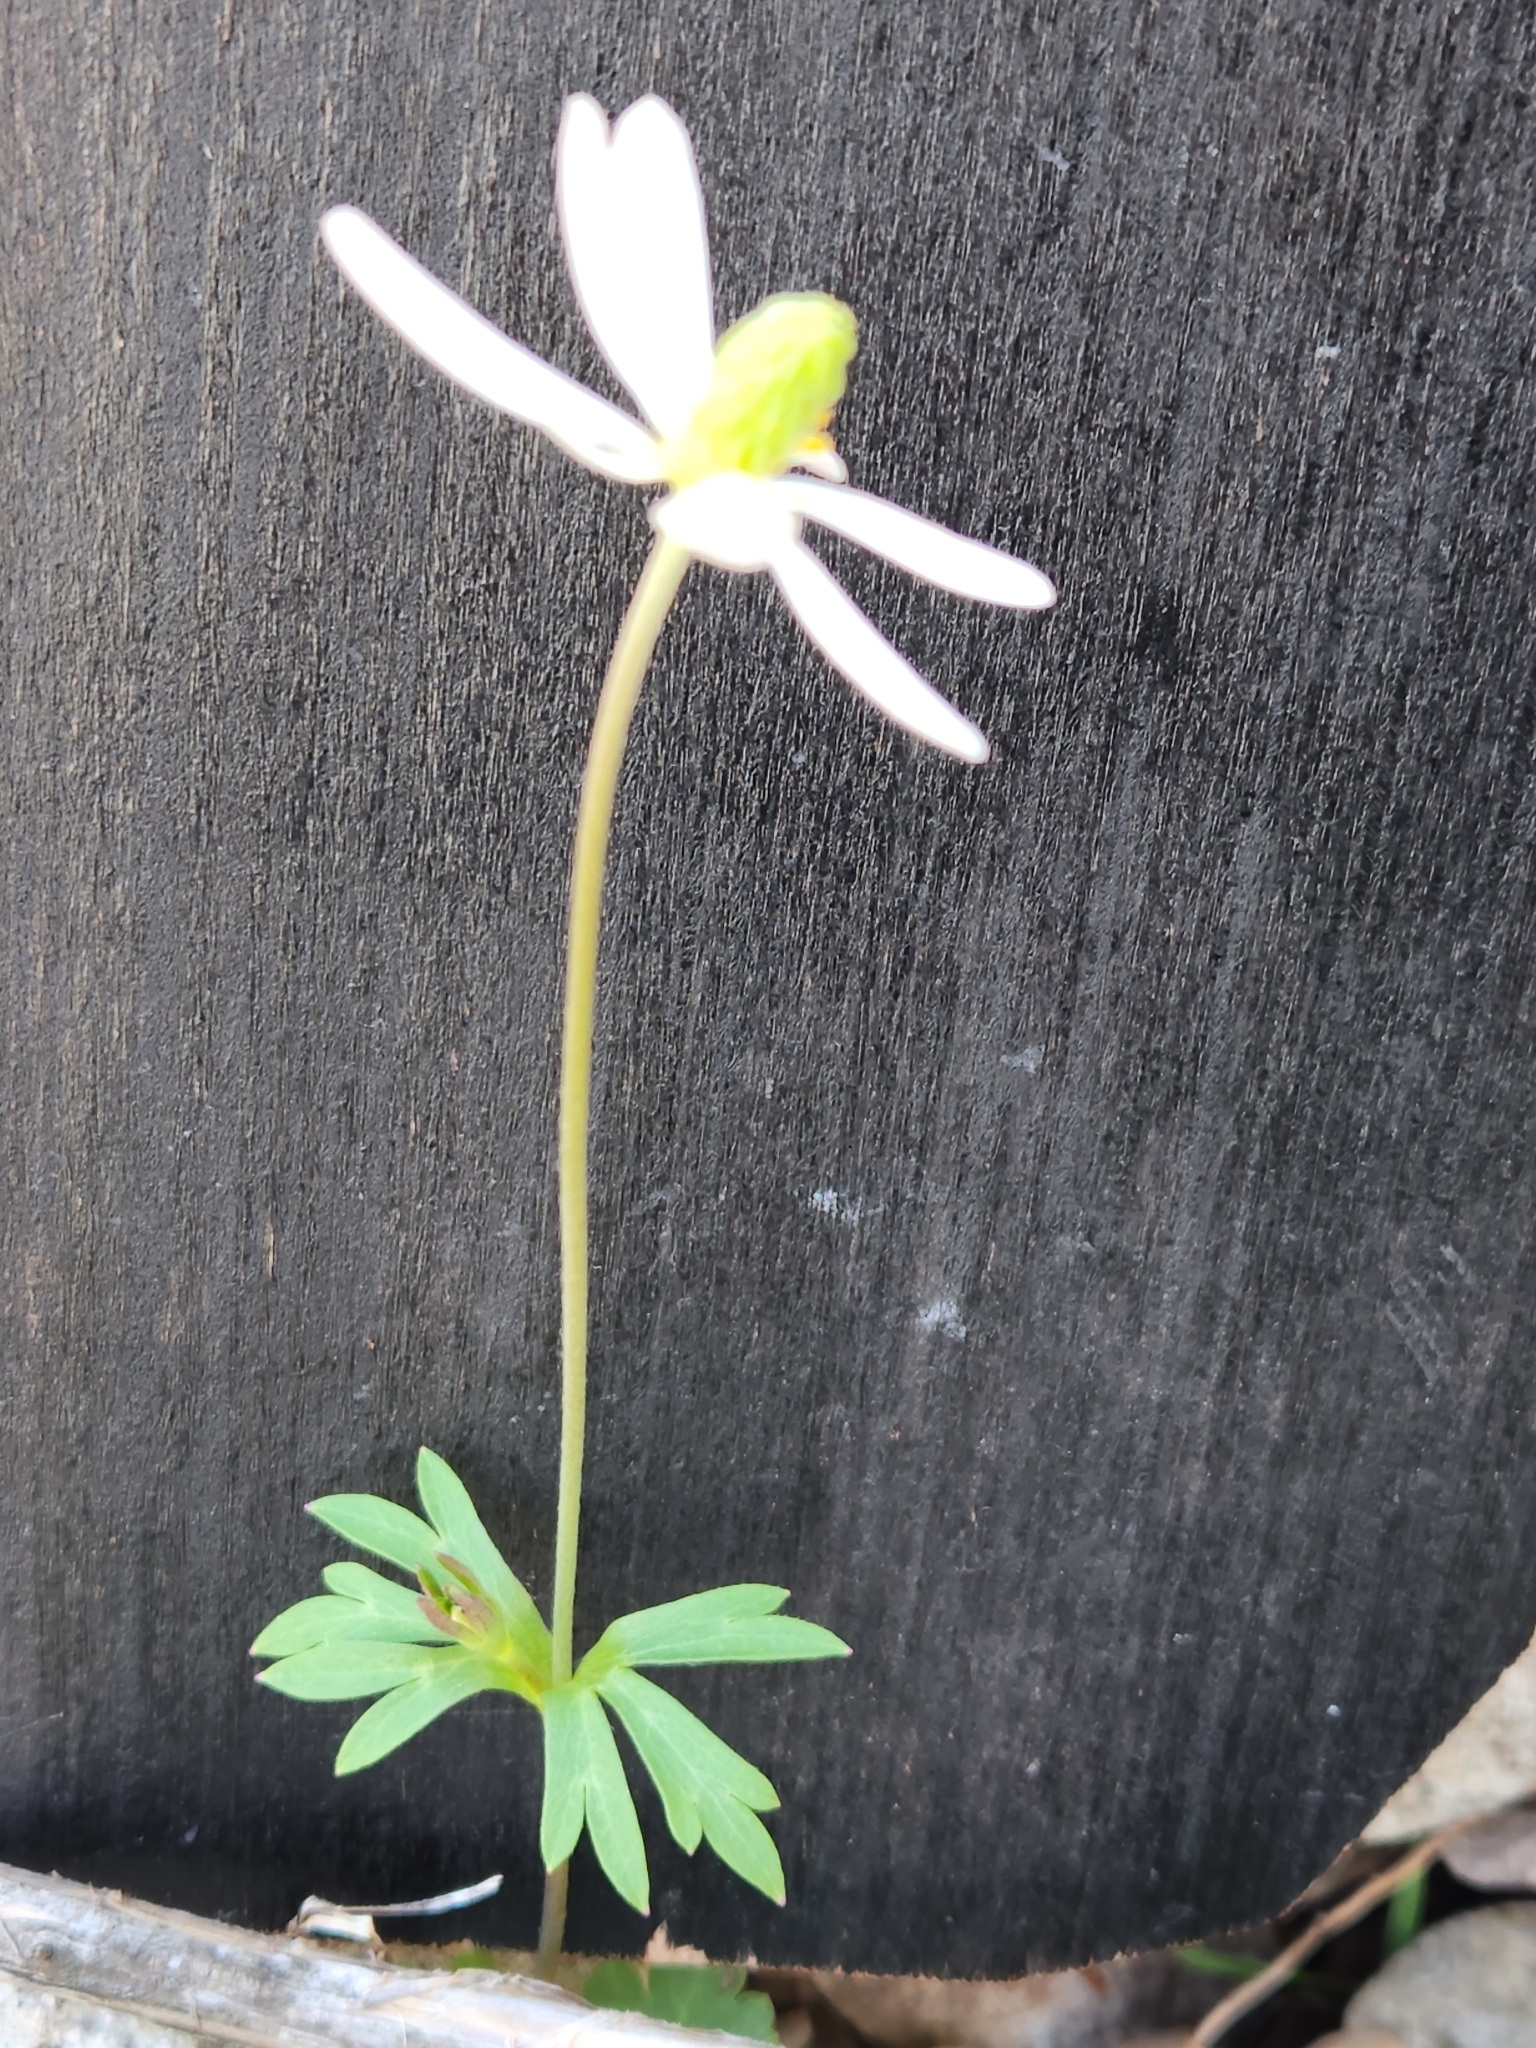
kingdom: Plantae
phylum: Tracheophyta
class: Magnoliopsida
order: Ranunculales
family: Ranunculaceae
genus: Anemone
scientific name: Anemone edwardsiana
